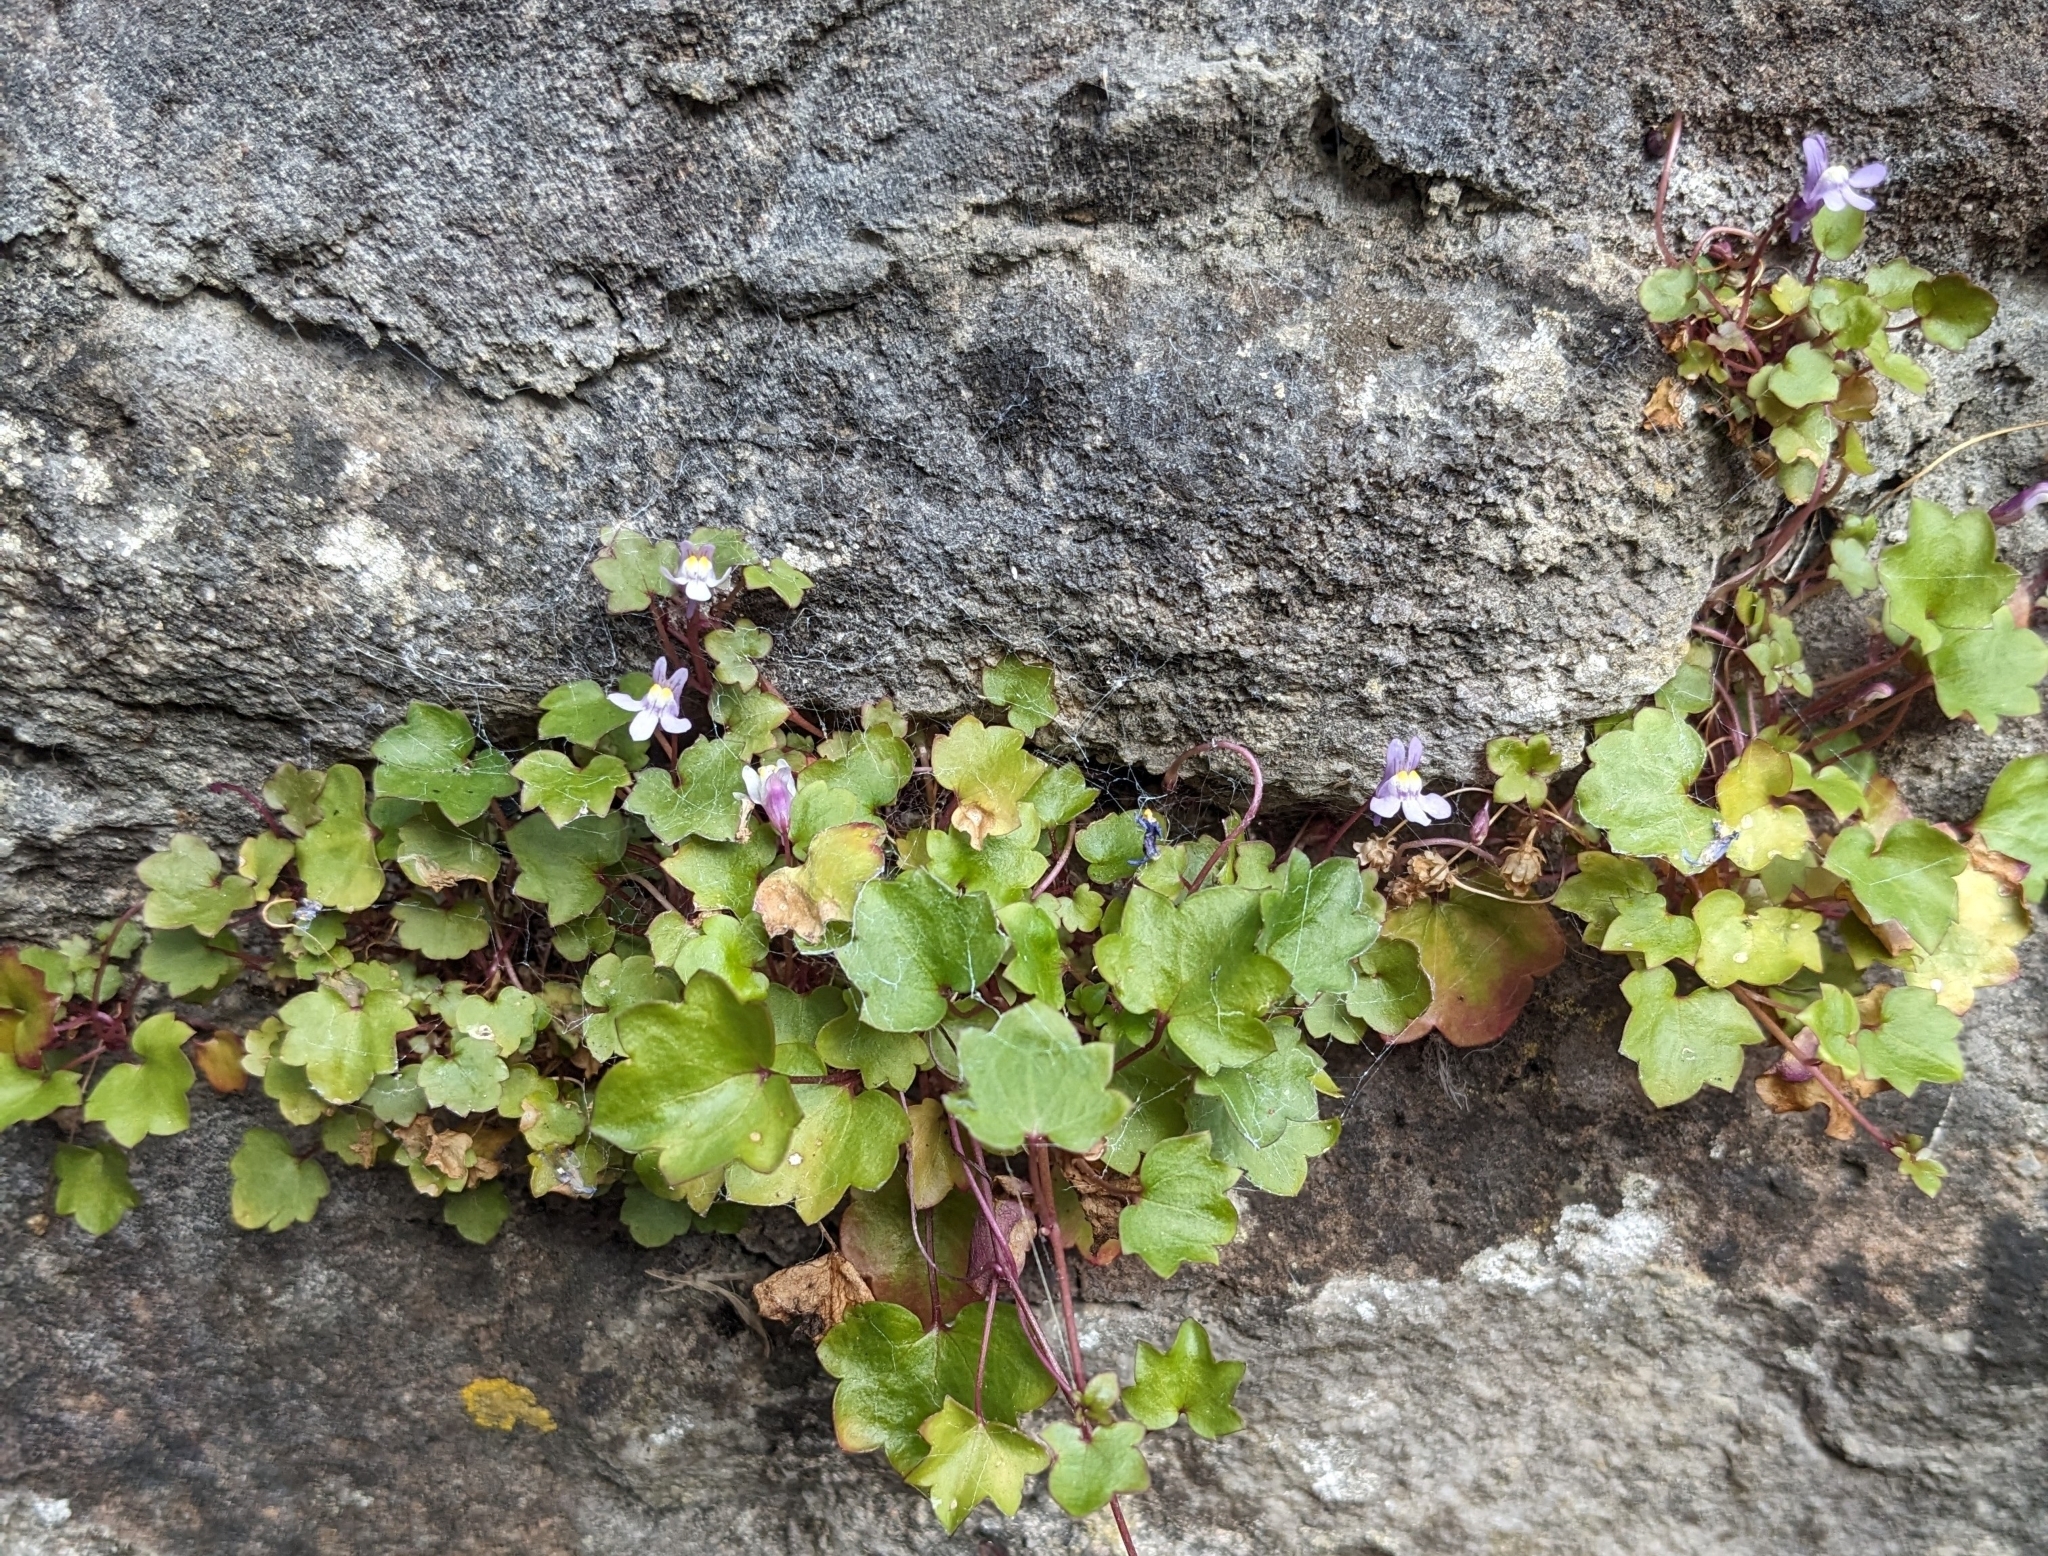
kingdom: Plantae
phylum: Tracheophyta
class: Magnoliopsida
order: Lamiales
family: Plantaginaceae
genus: Cymbalaria
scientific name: Cymbalaria muralis
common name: Ivy-leaved toadflax
